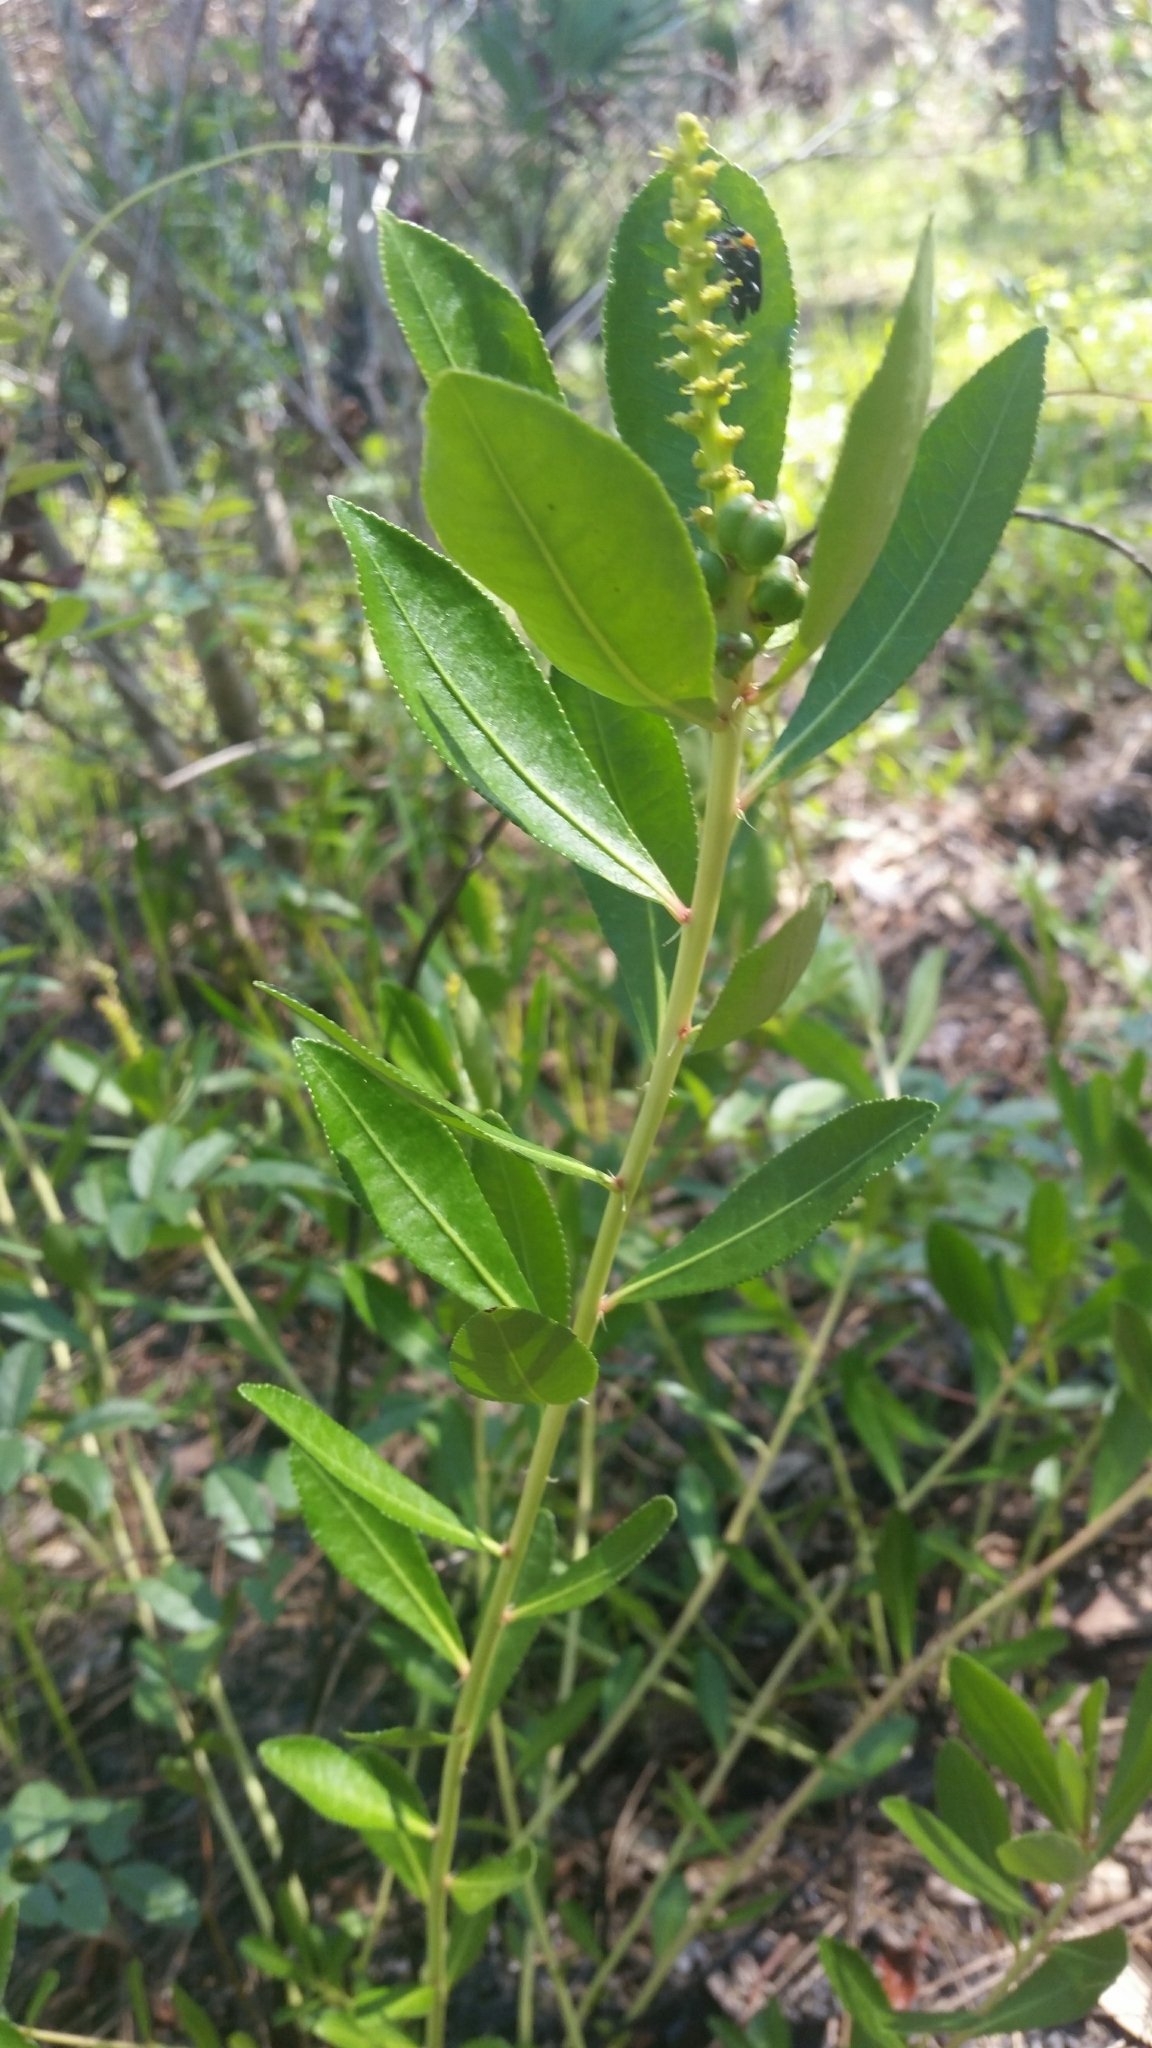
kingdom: Plantae
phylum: Tracheophyta
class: Magnoliopsida
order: Malpighiales
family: Euphorbiaceae
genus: Stillingia
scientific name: Stillingia sylvatica
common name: Queen's-delight
